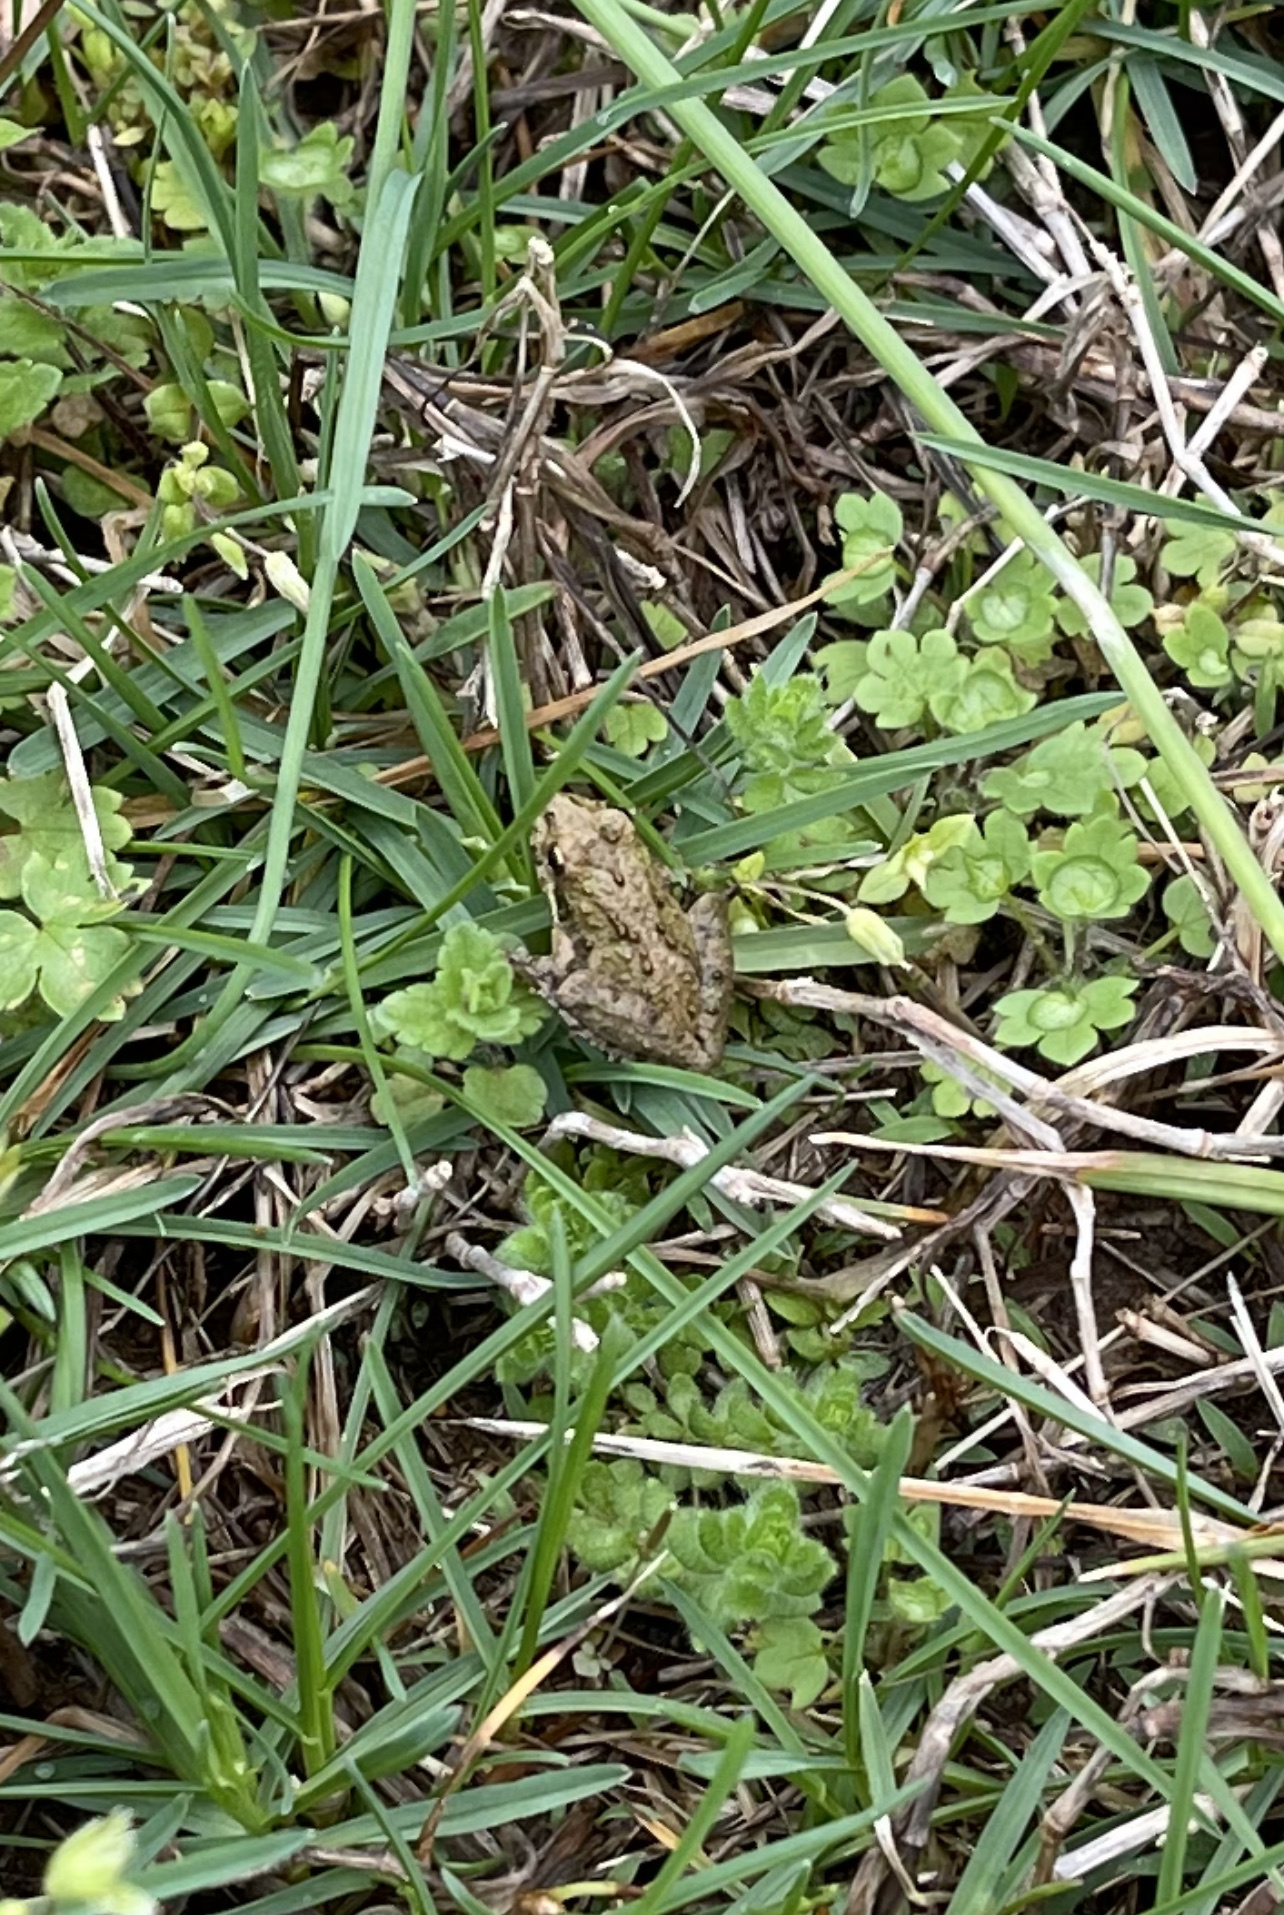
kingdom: Animalia
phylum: Chordata
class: Amphibia
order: Anura
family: Hylidae
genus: Acris
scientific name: Acris crepitans
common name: Northern cricket frog
